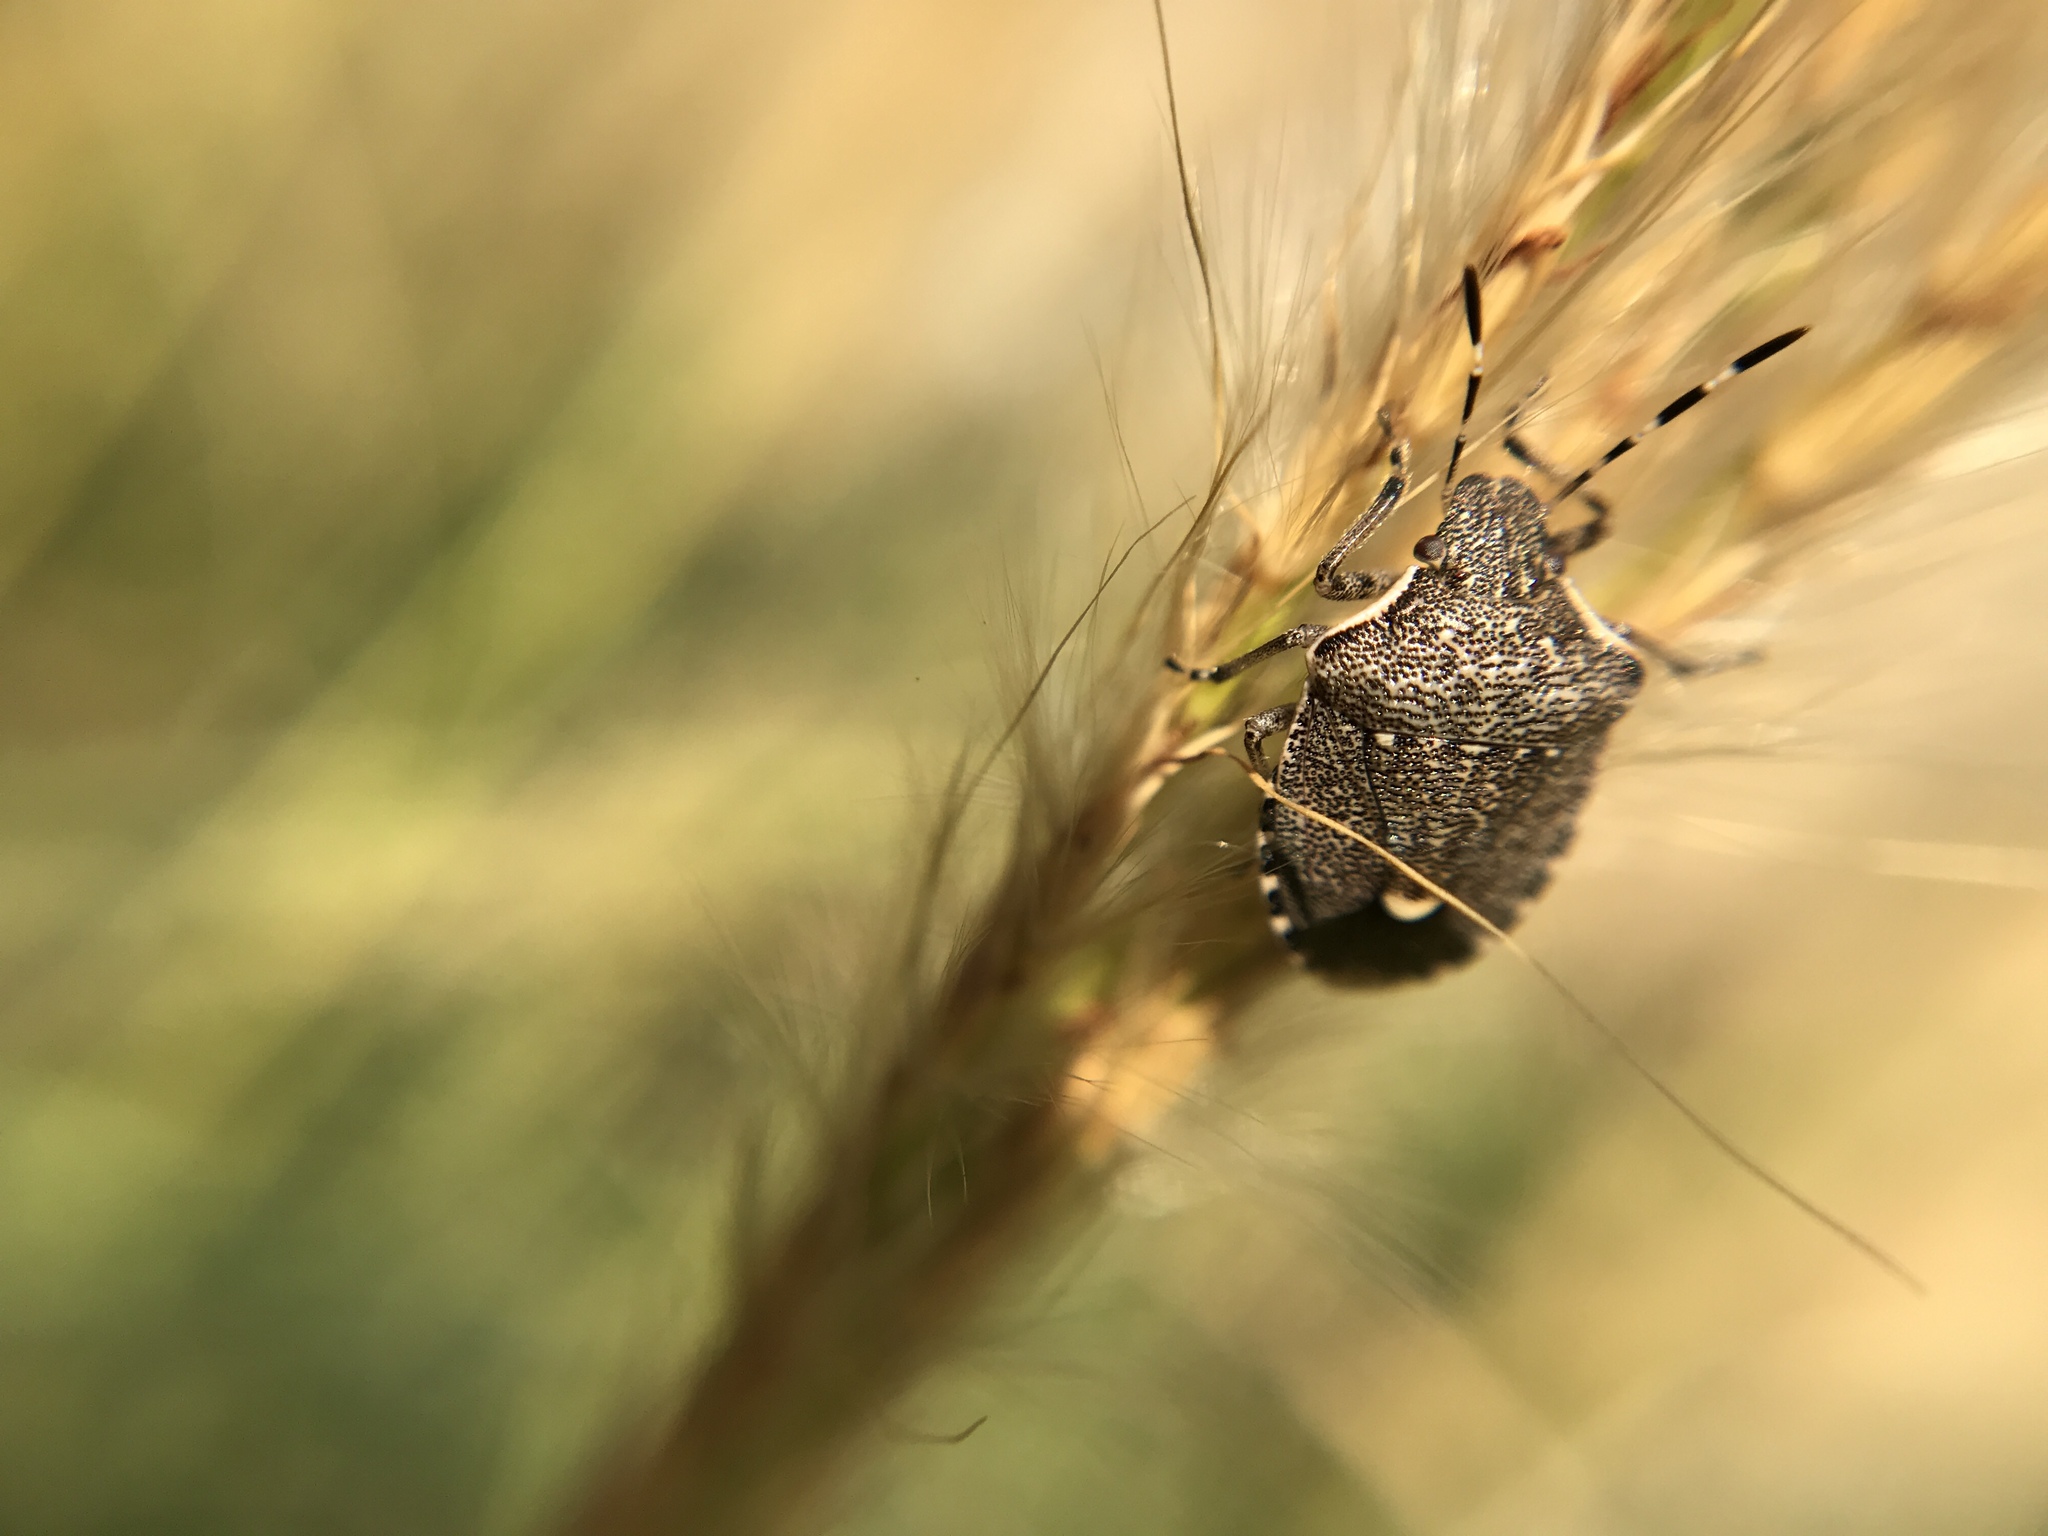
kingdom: Animalia
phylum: Arthropoda
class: Insecta
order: Hemiptera
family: Pentatomidae
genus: Halyomorpha
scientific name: Halyomorpha halys
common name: Brown marmorated stink bug
